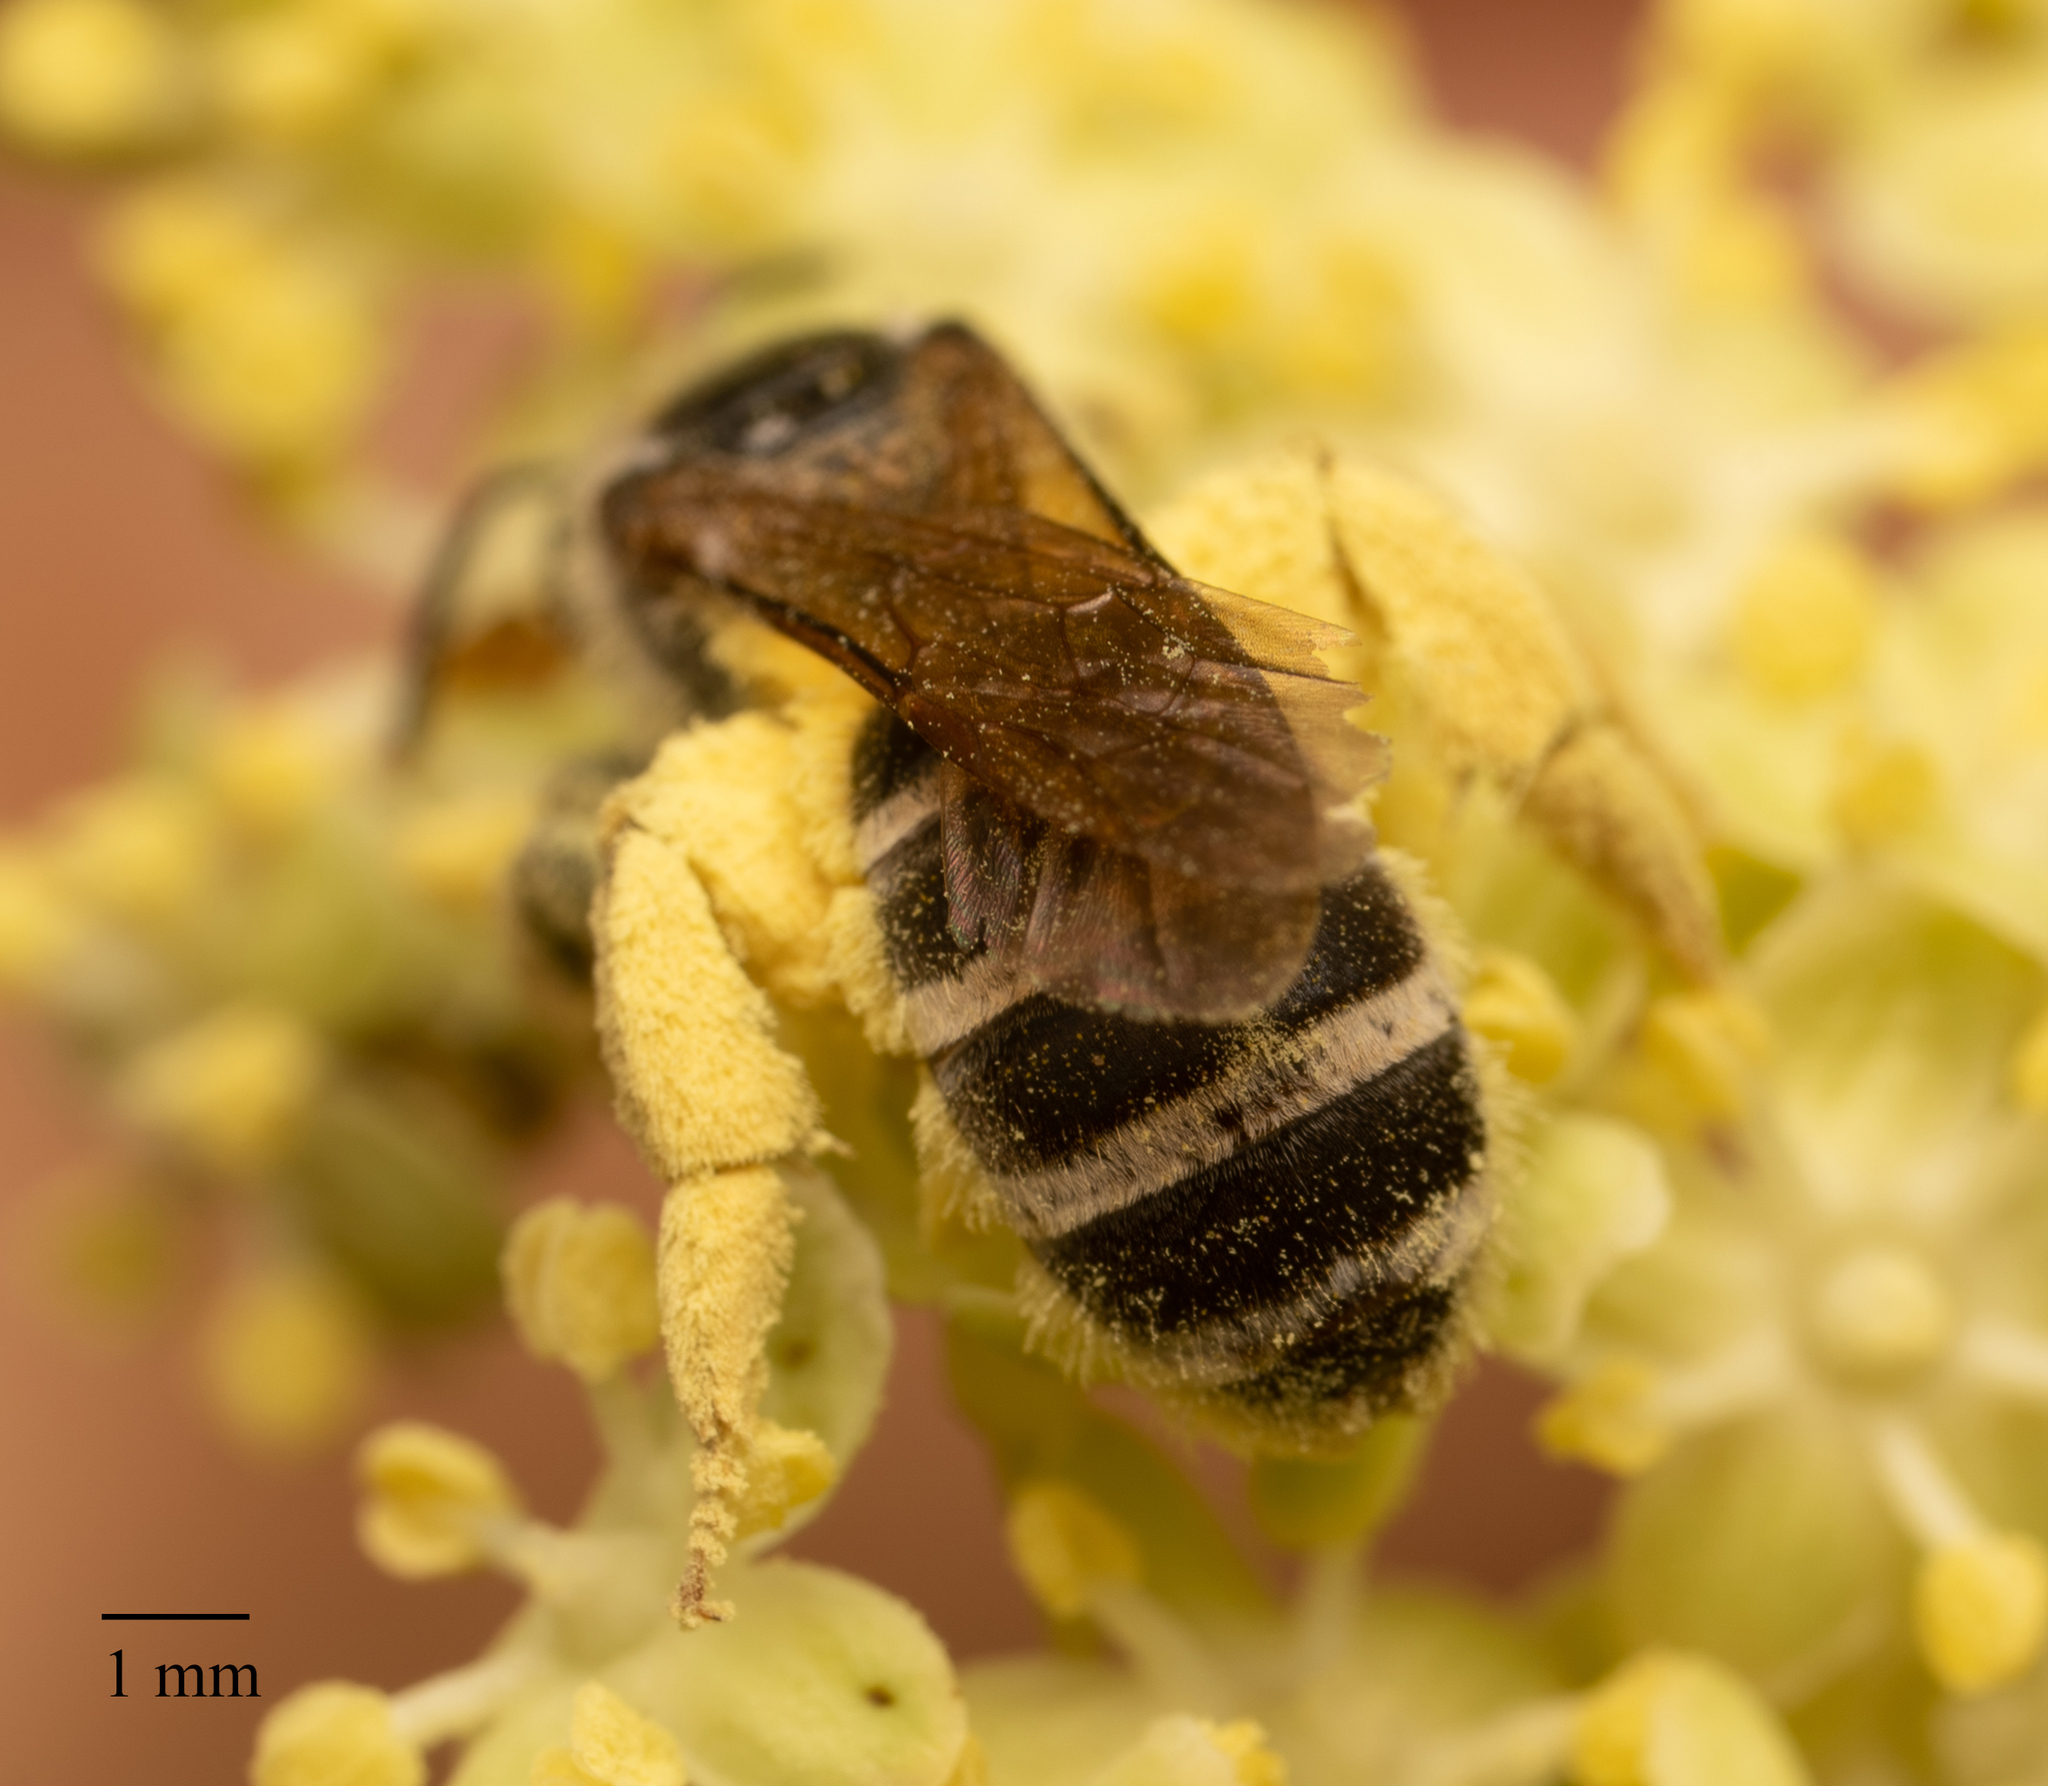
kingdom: Animalia
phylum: Arthropoda
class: Insecta
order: Hymenoptera
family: Halictidae
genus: Halictus
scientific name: Halictus farinosus
